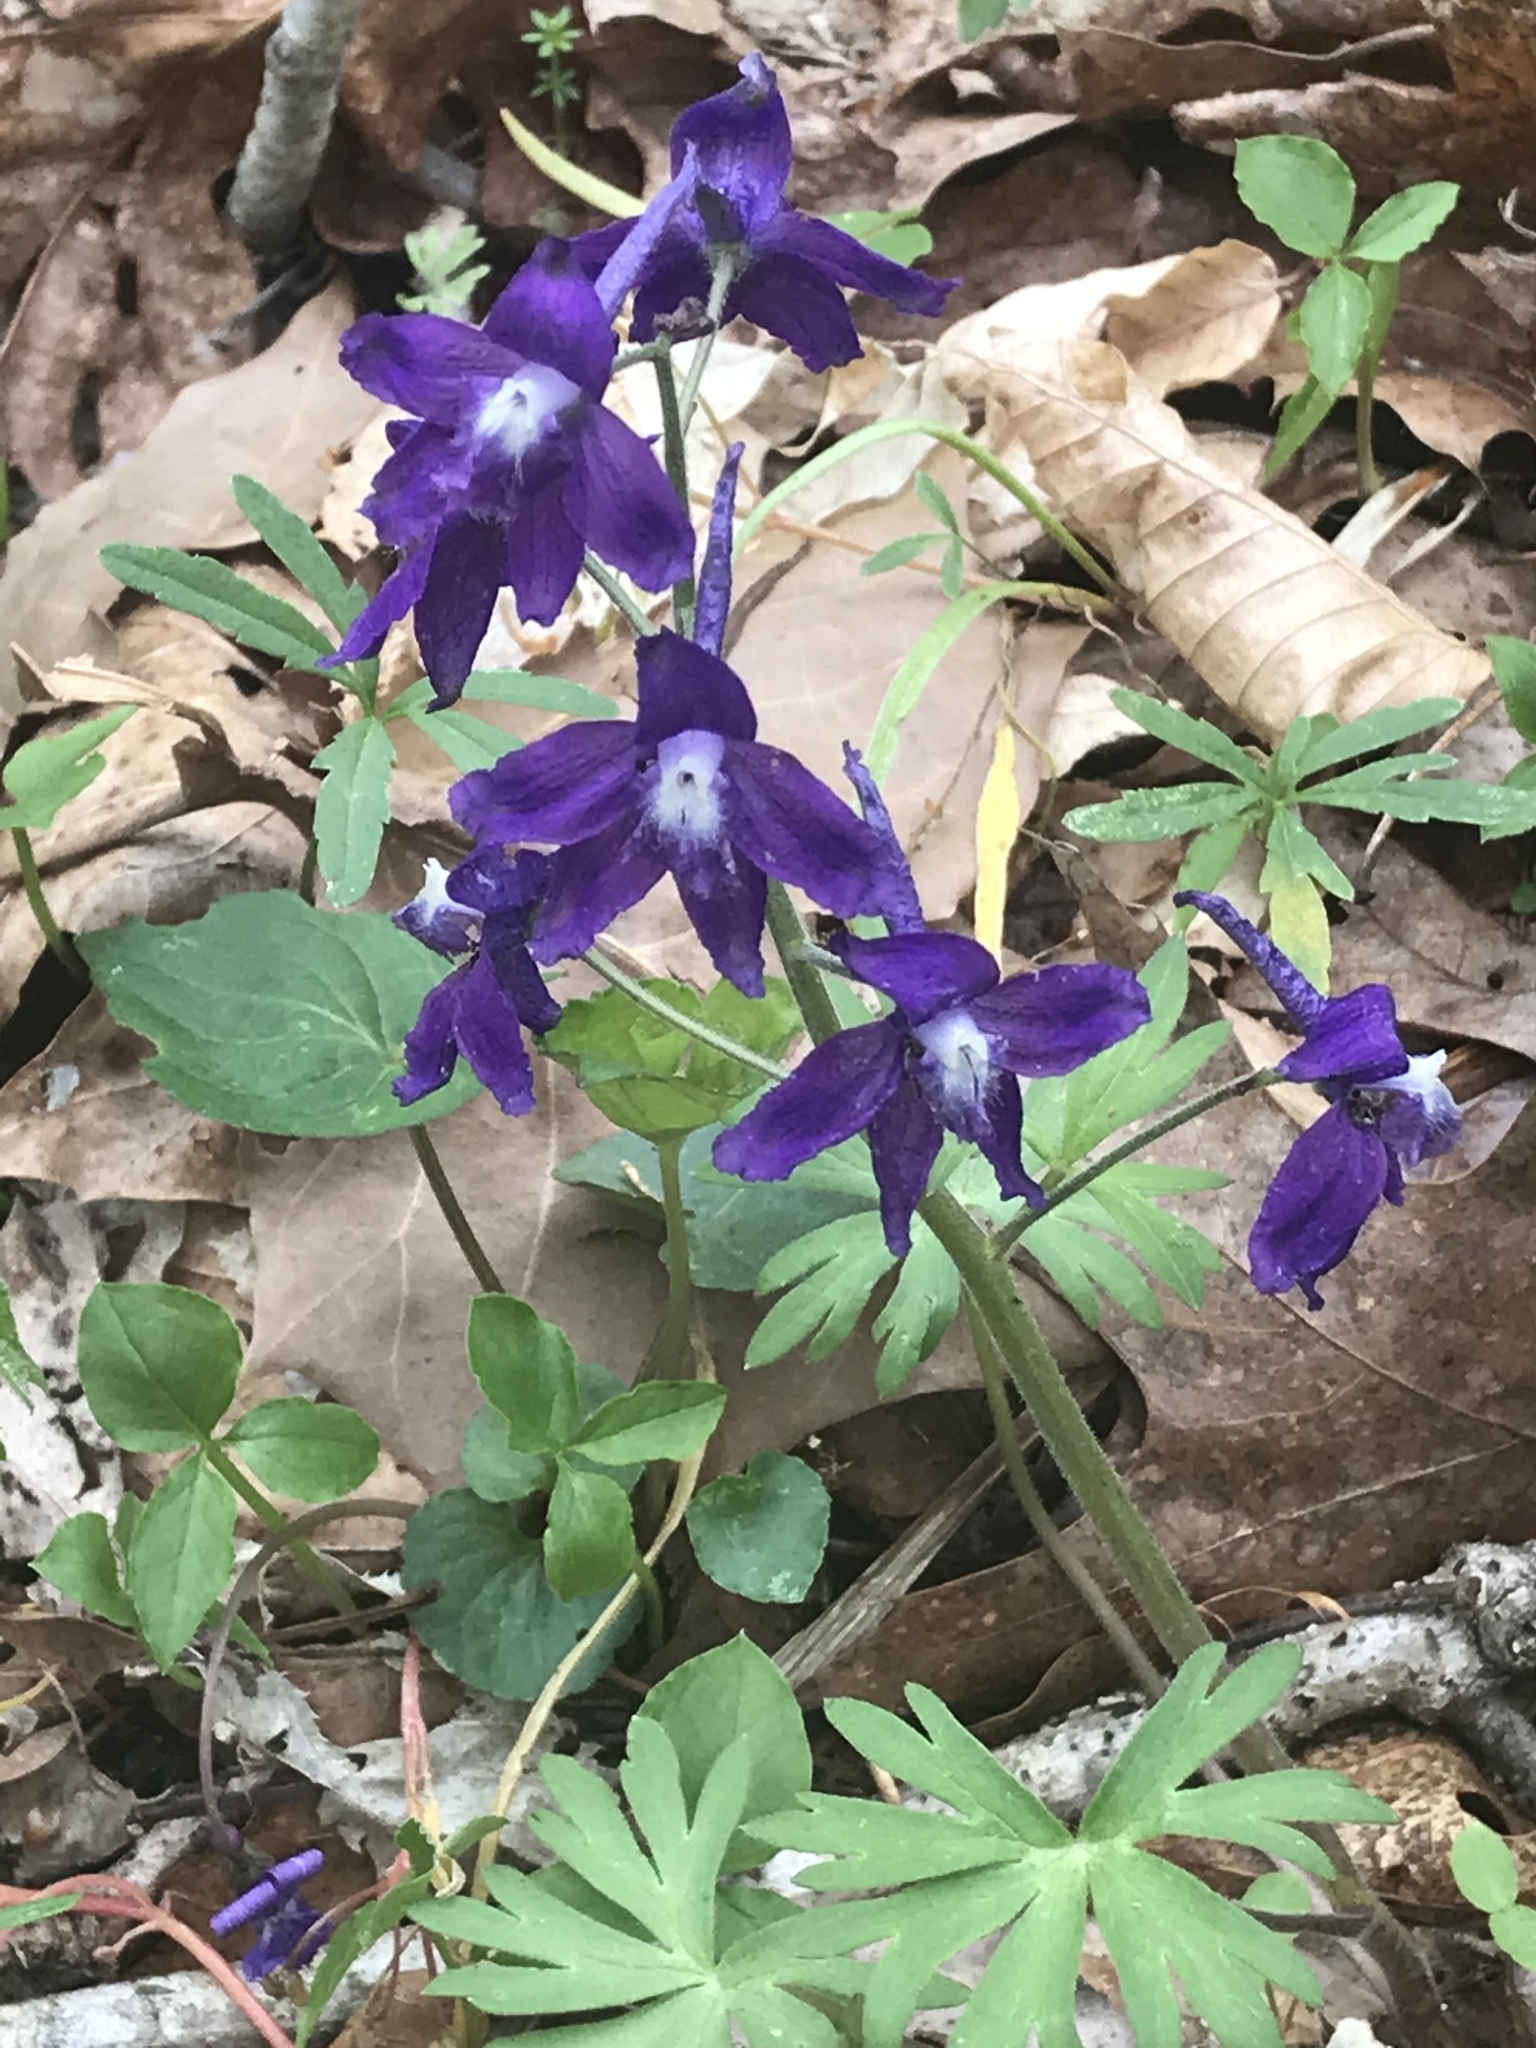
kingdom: Plantae
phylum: Tracheophyta
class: Magnoliopsida
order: Ranunculales
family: Ranunculaceae
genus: Delphinium
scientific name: Delphinium tricorne
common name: Dwarf larkspur
